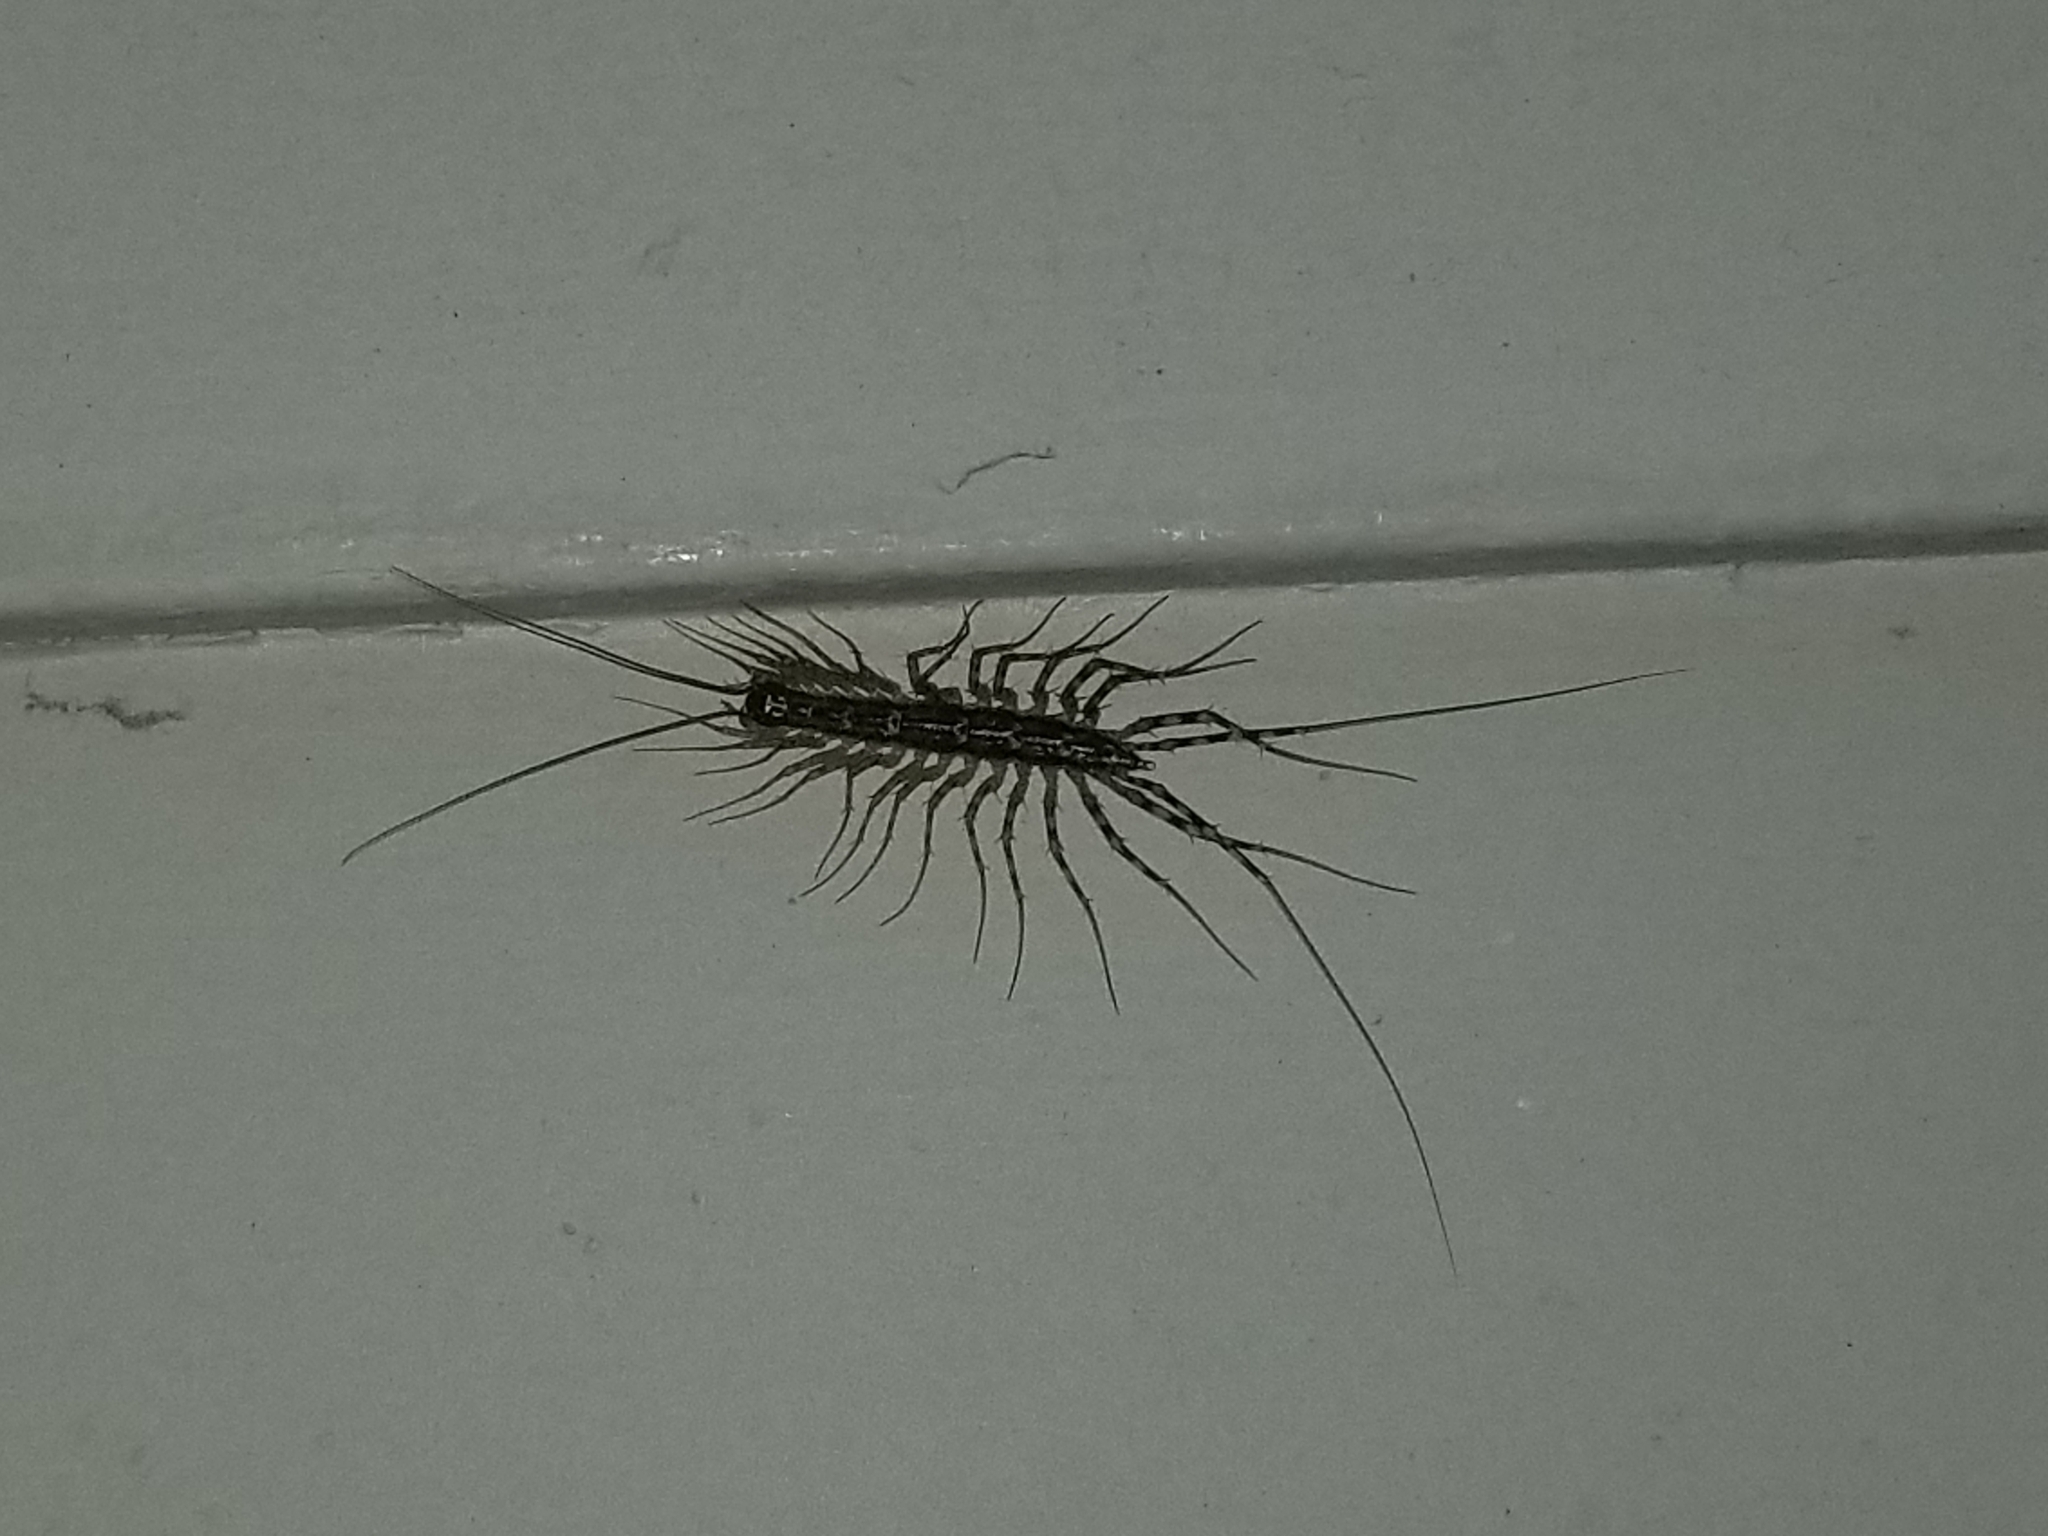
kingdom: Animalia
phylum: Arthropoda
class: Chilopoda
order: Scutigeromorpha
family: Scutigeridae
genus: Thereuonema
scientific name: Thereuonema tuberculata
